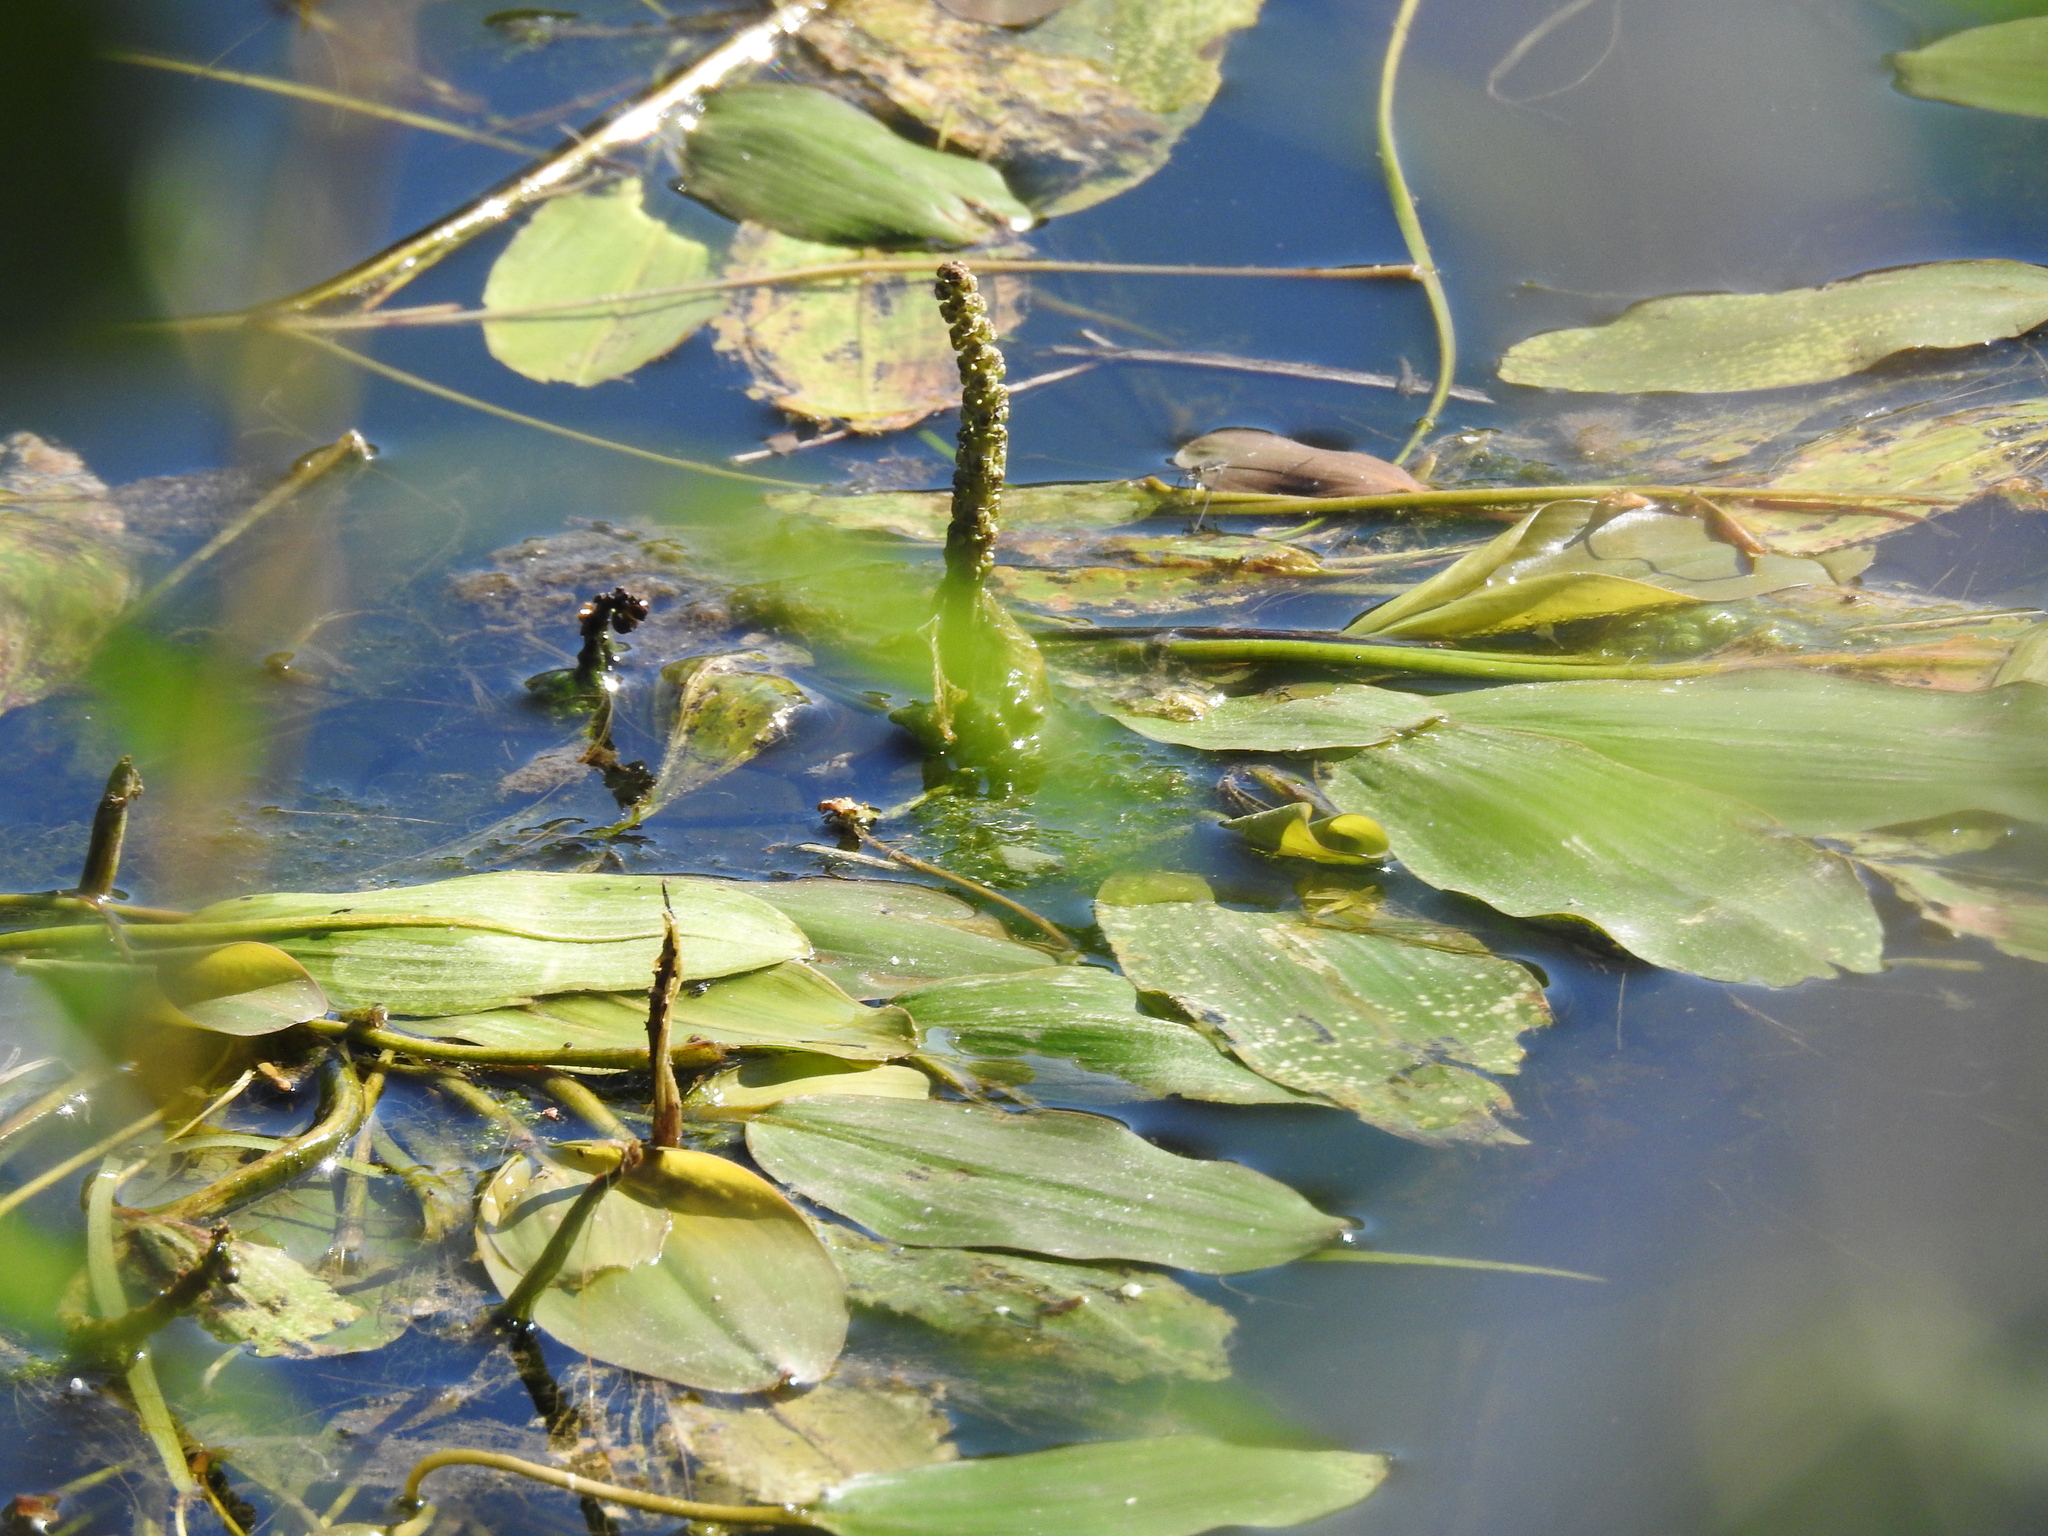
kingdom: Plantae
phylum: Tracheophyta
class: Liliopsida
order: Alismatales
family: Potamogetonaceae
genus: Potamogeton
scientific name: Potamogeton natans
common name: Broad-leaved pondweed
